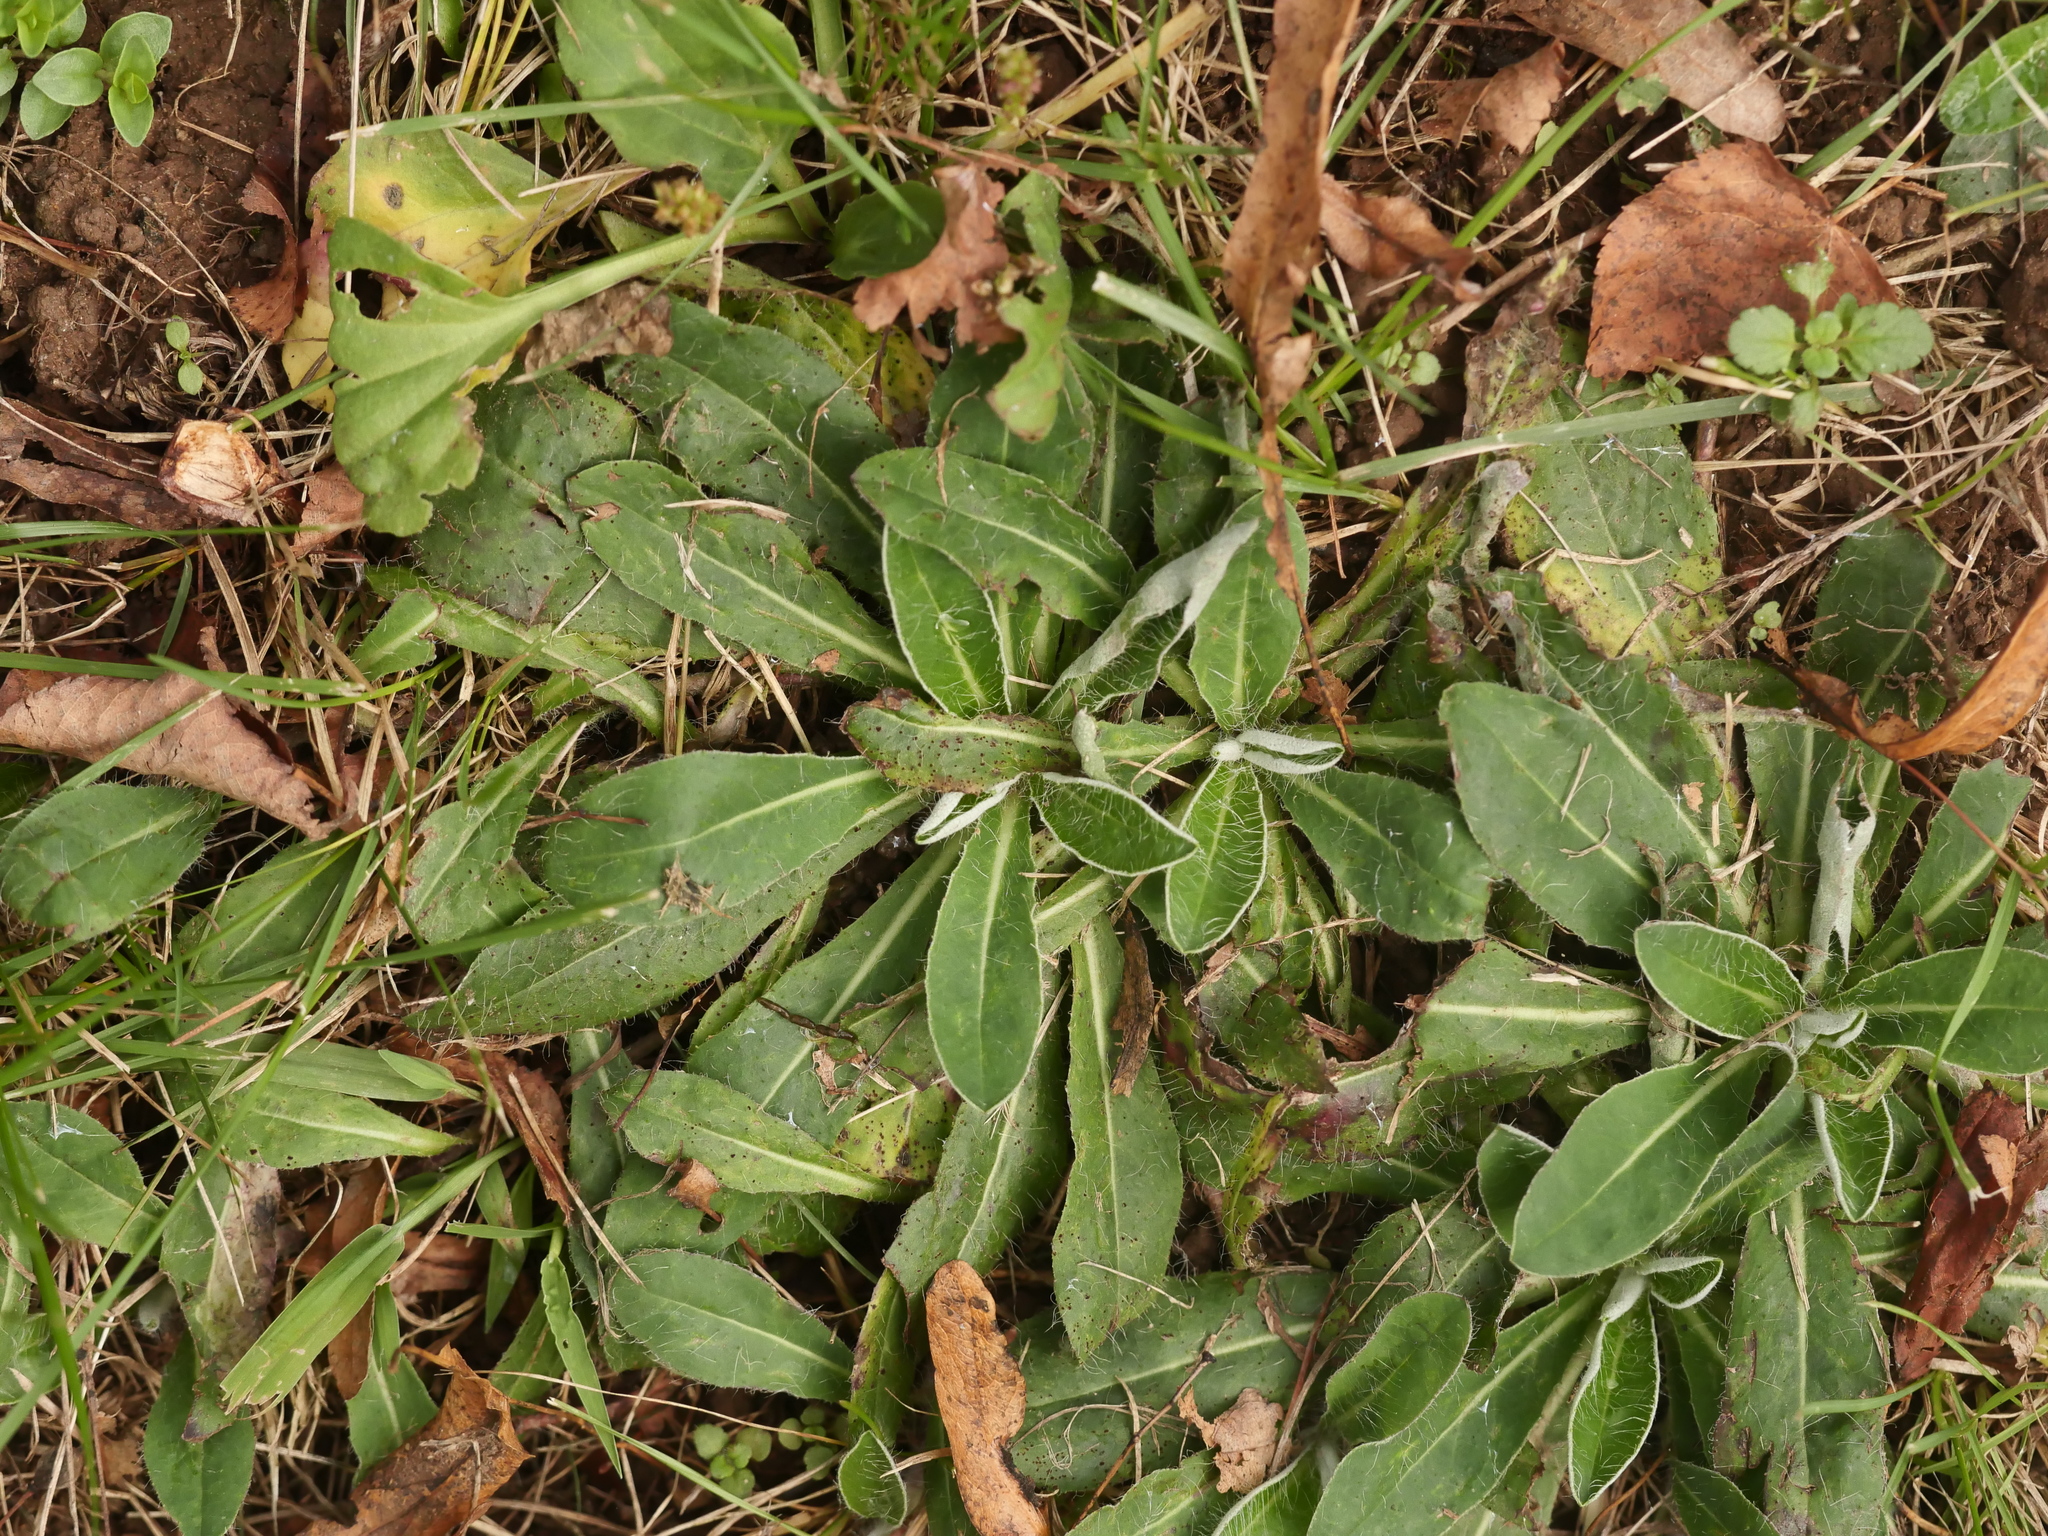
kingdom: Plantae
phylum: Tracheophyta
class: Magnoliopsida
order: Asterales
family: Asteraceae
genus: Pilosella
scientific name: Pilosella officinarum
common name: Mouse-ear hawkweed
